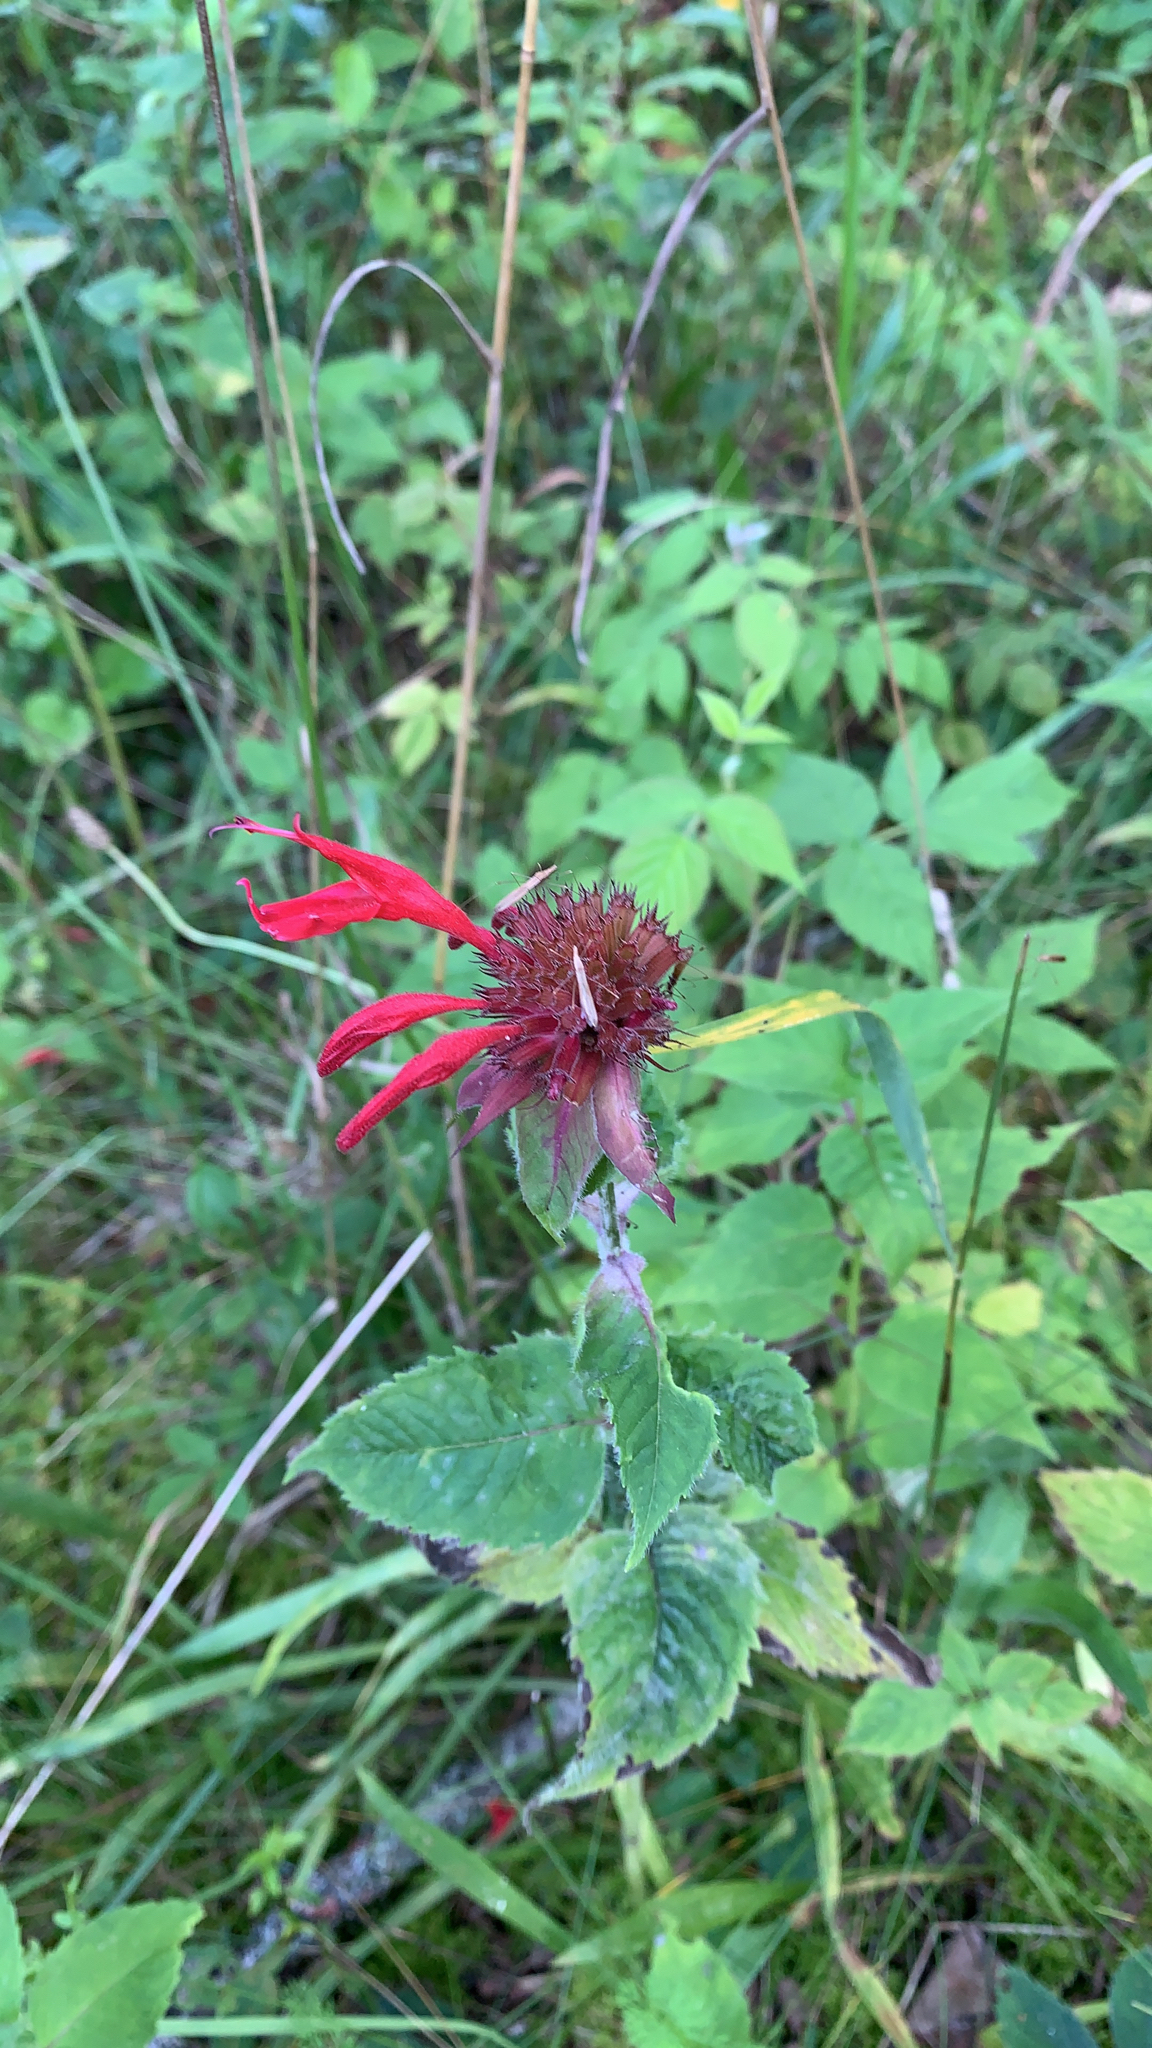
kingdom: Plantae
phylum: Tracheophyta
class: Magnoliopsida
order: Lamiales
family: Lamiaceae
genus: Monarda
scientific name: Monarda didyma
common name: Beebalm
